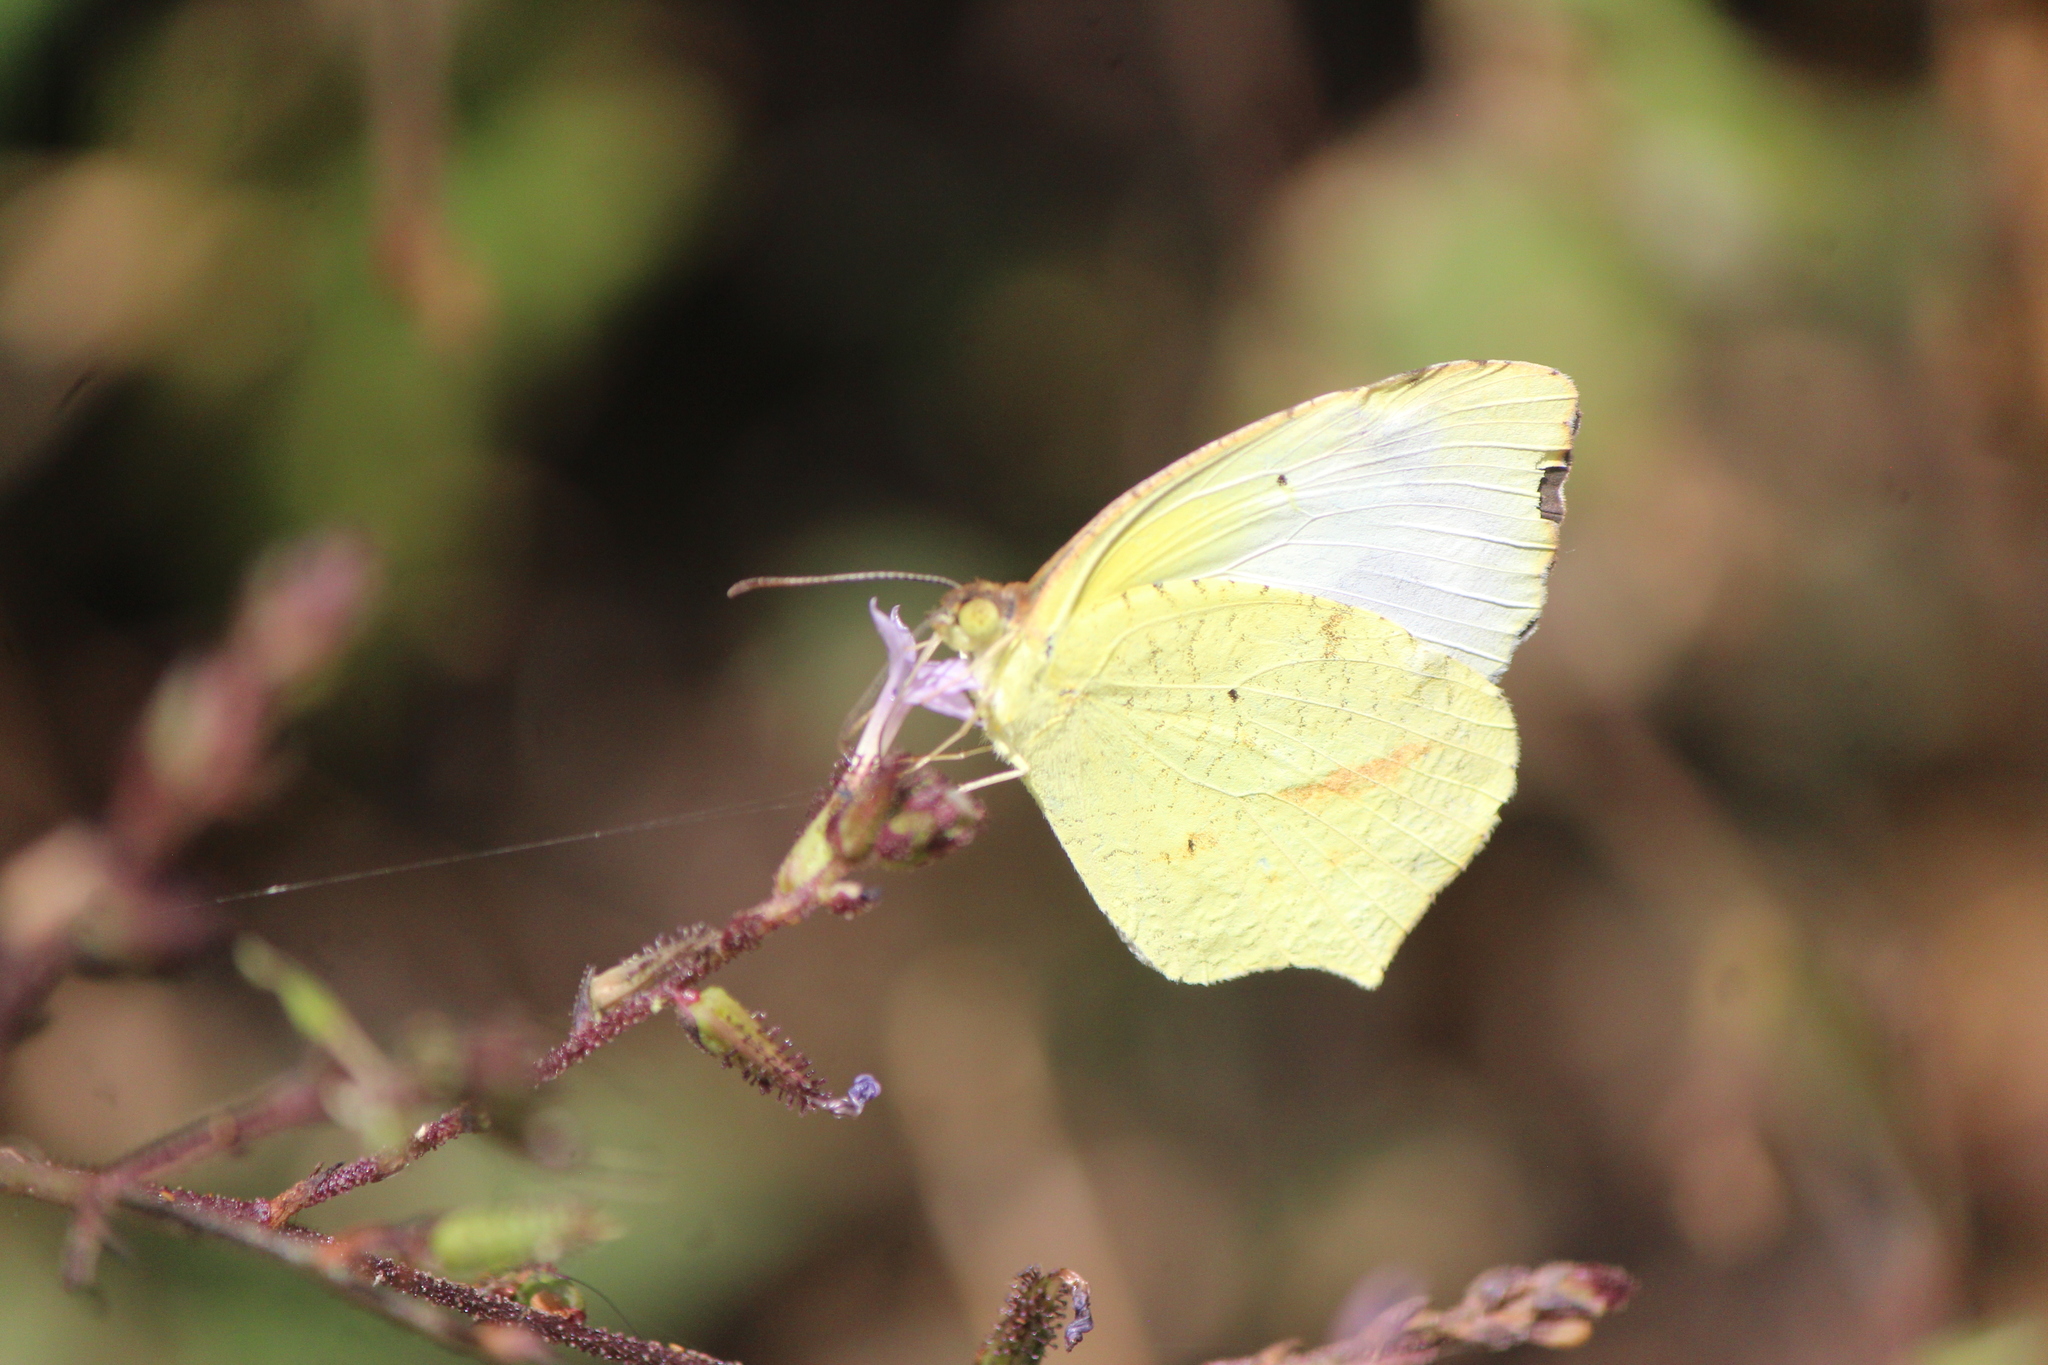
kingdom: Animalia
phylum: Arthropoda
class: Insecta
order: Lepidoptera
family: Pieridae
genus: Abaeis
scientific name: Abaeis mexicana
